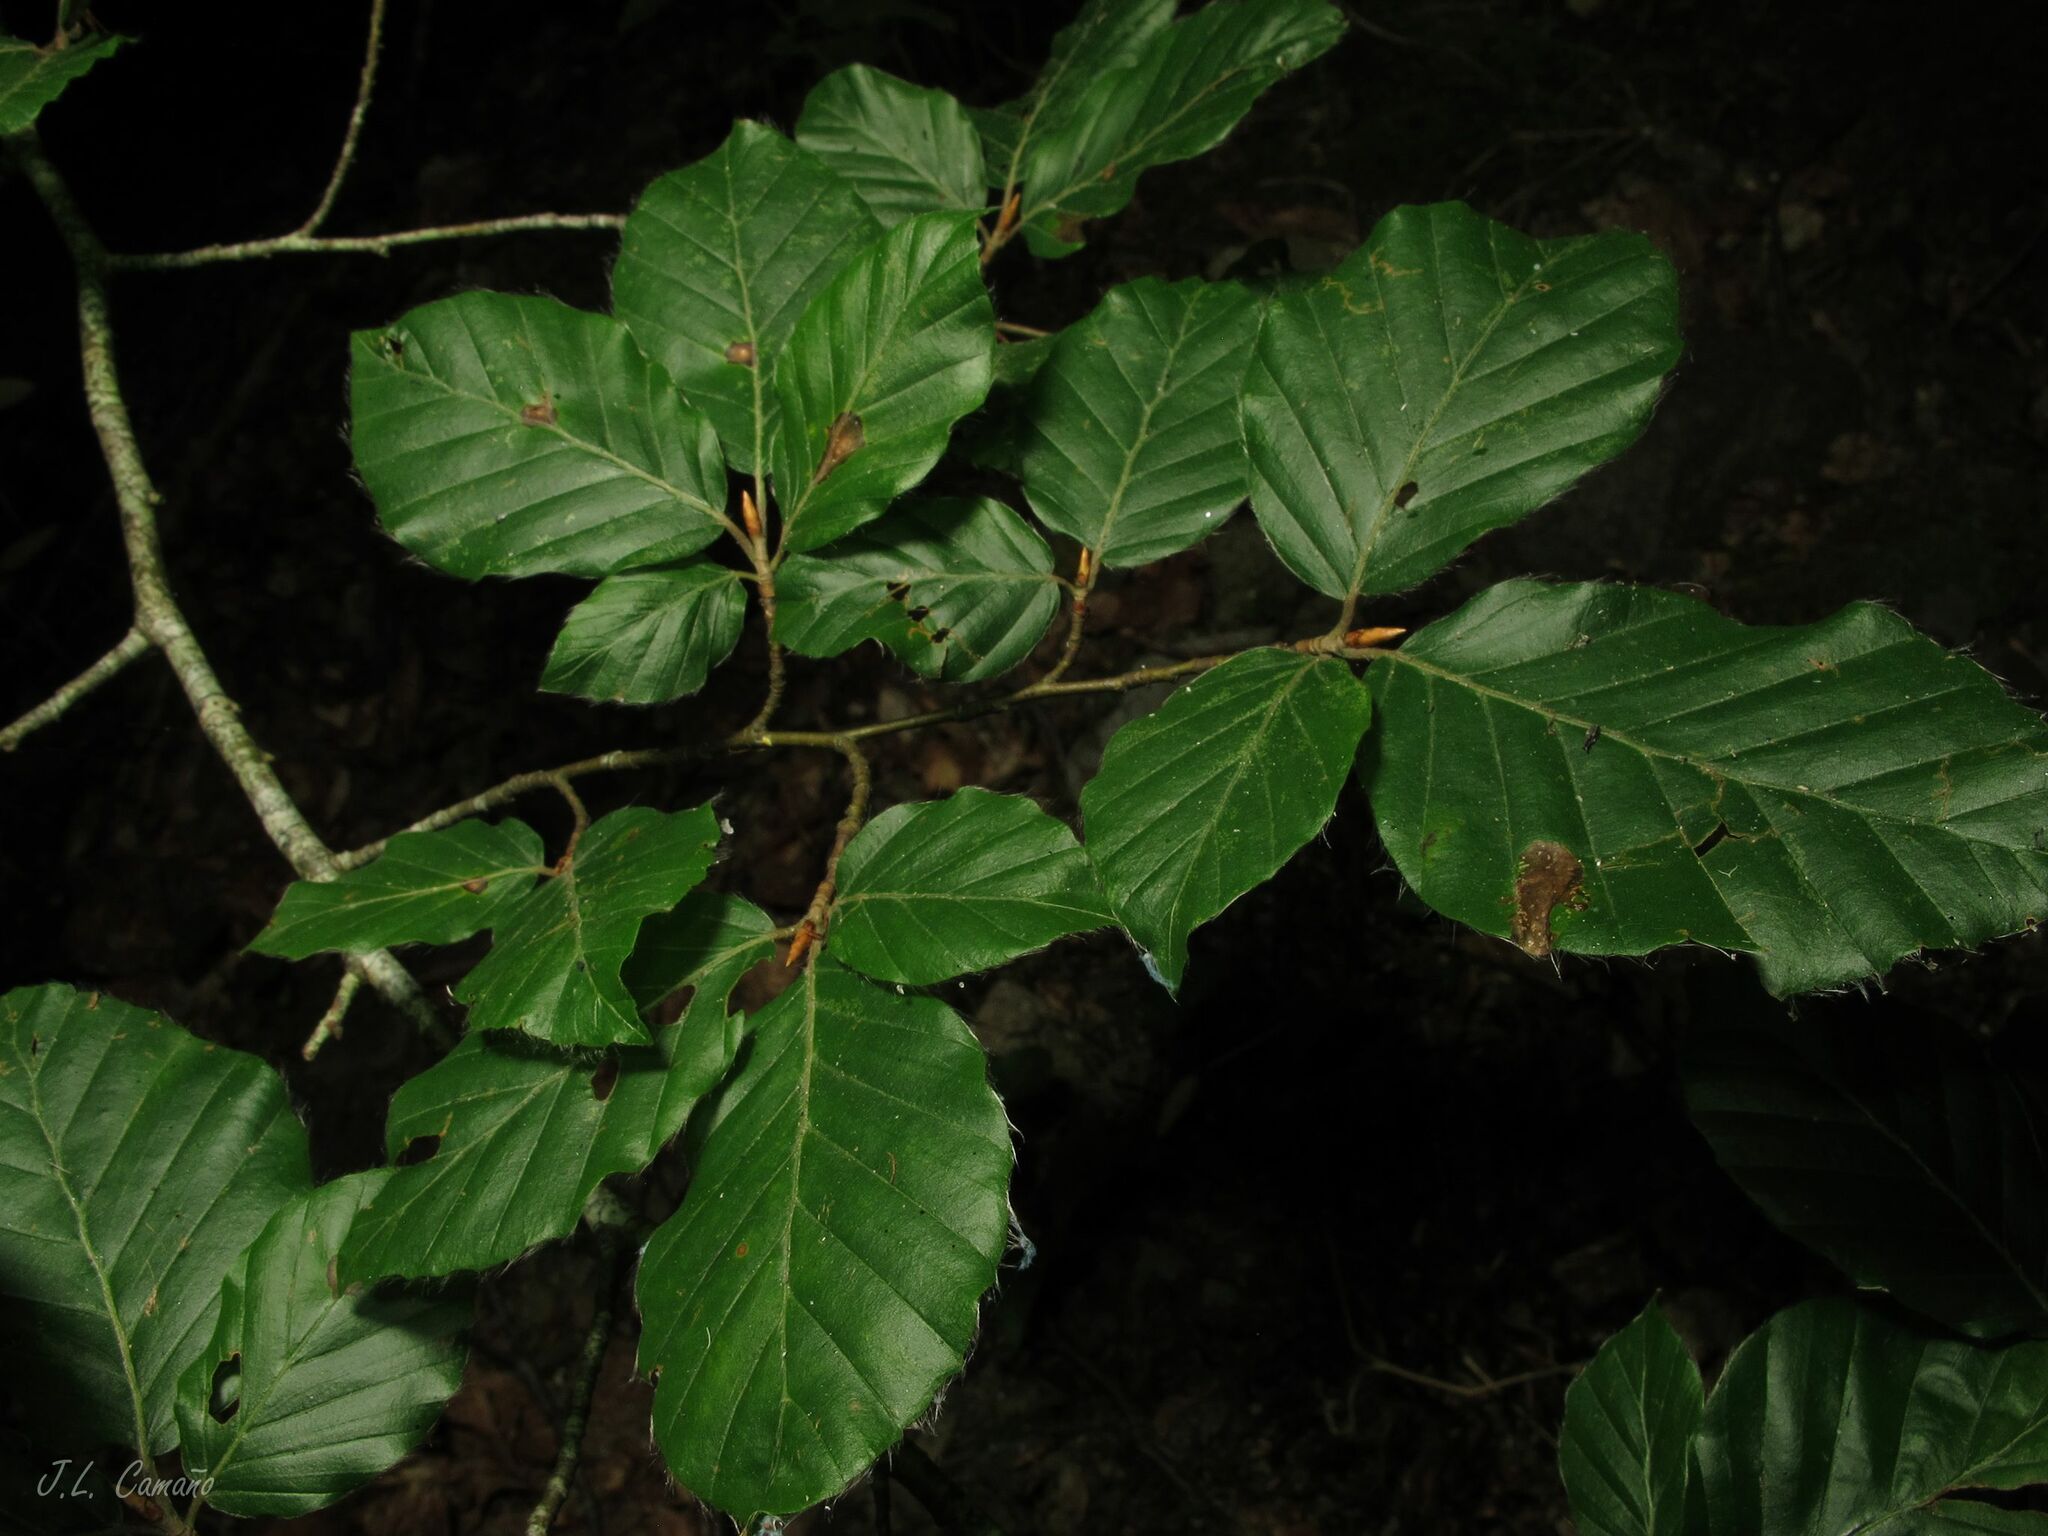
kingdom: Plantae
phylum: Tracheophyta
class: Magnoliopsida
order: Fagales
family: Fagaceae
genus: Fagus
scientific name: Fagus sylvatica
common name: Beech
